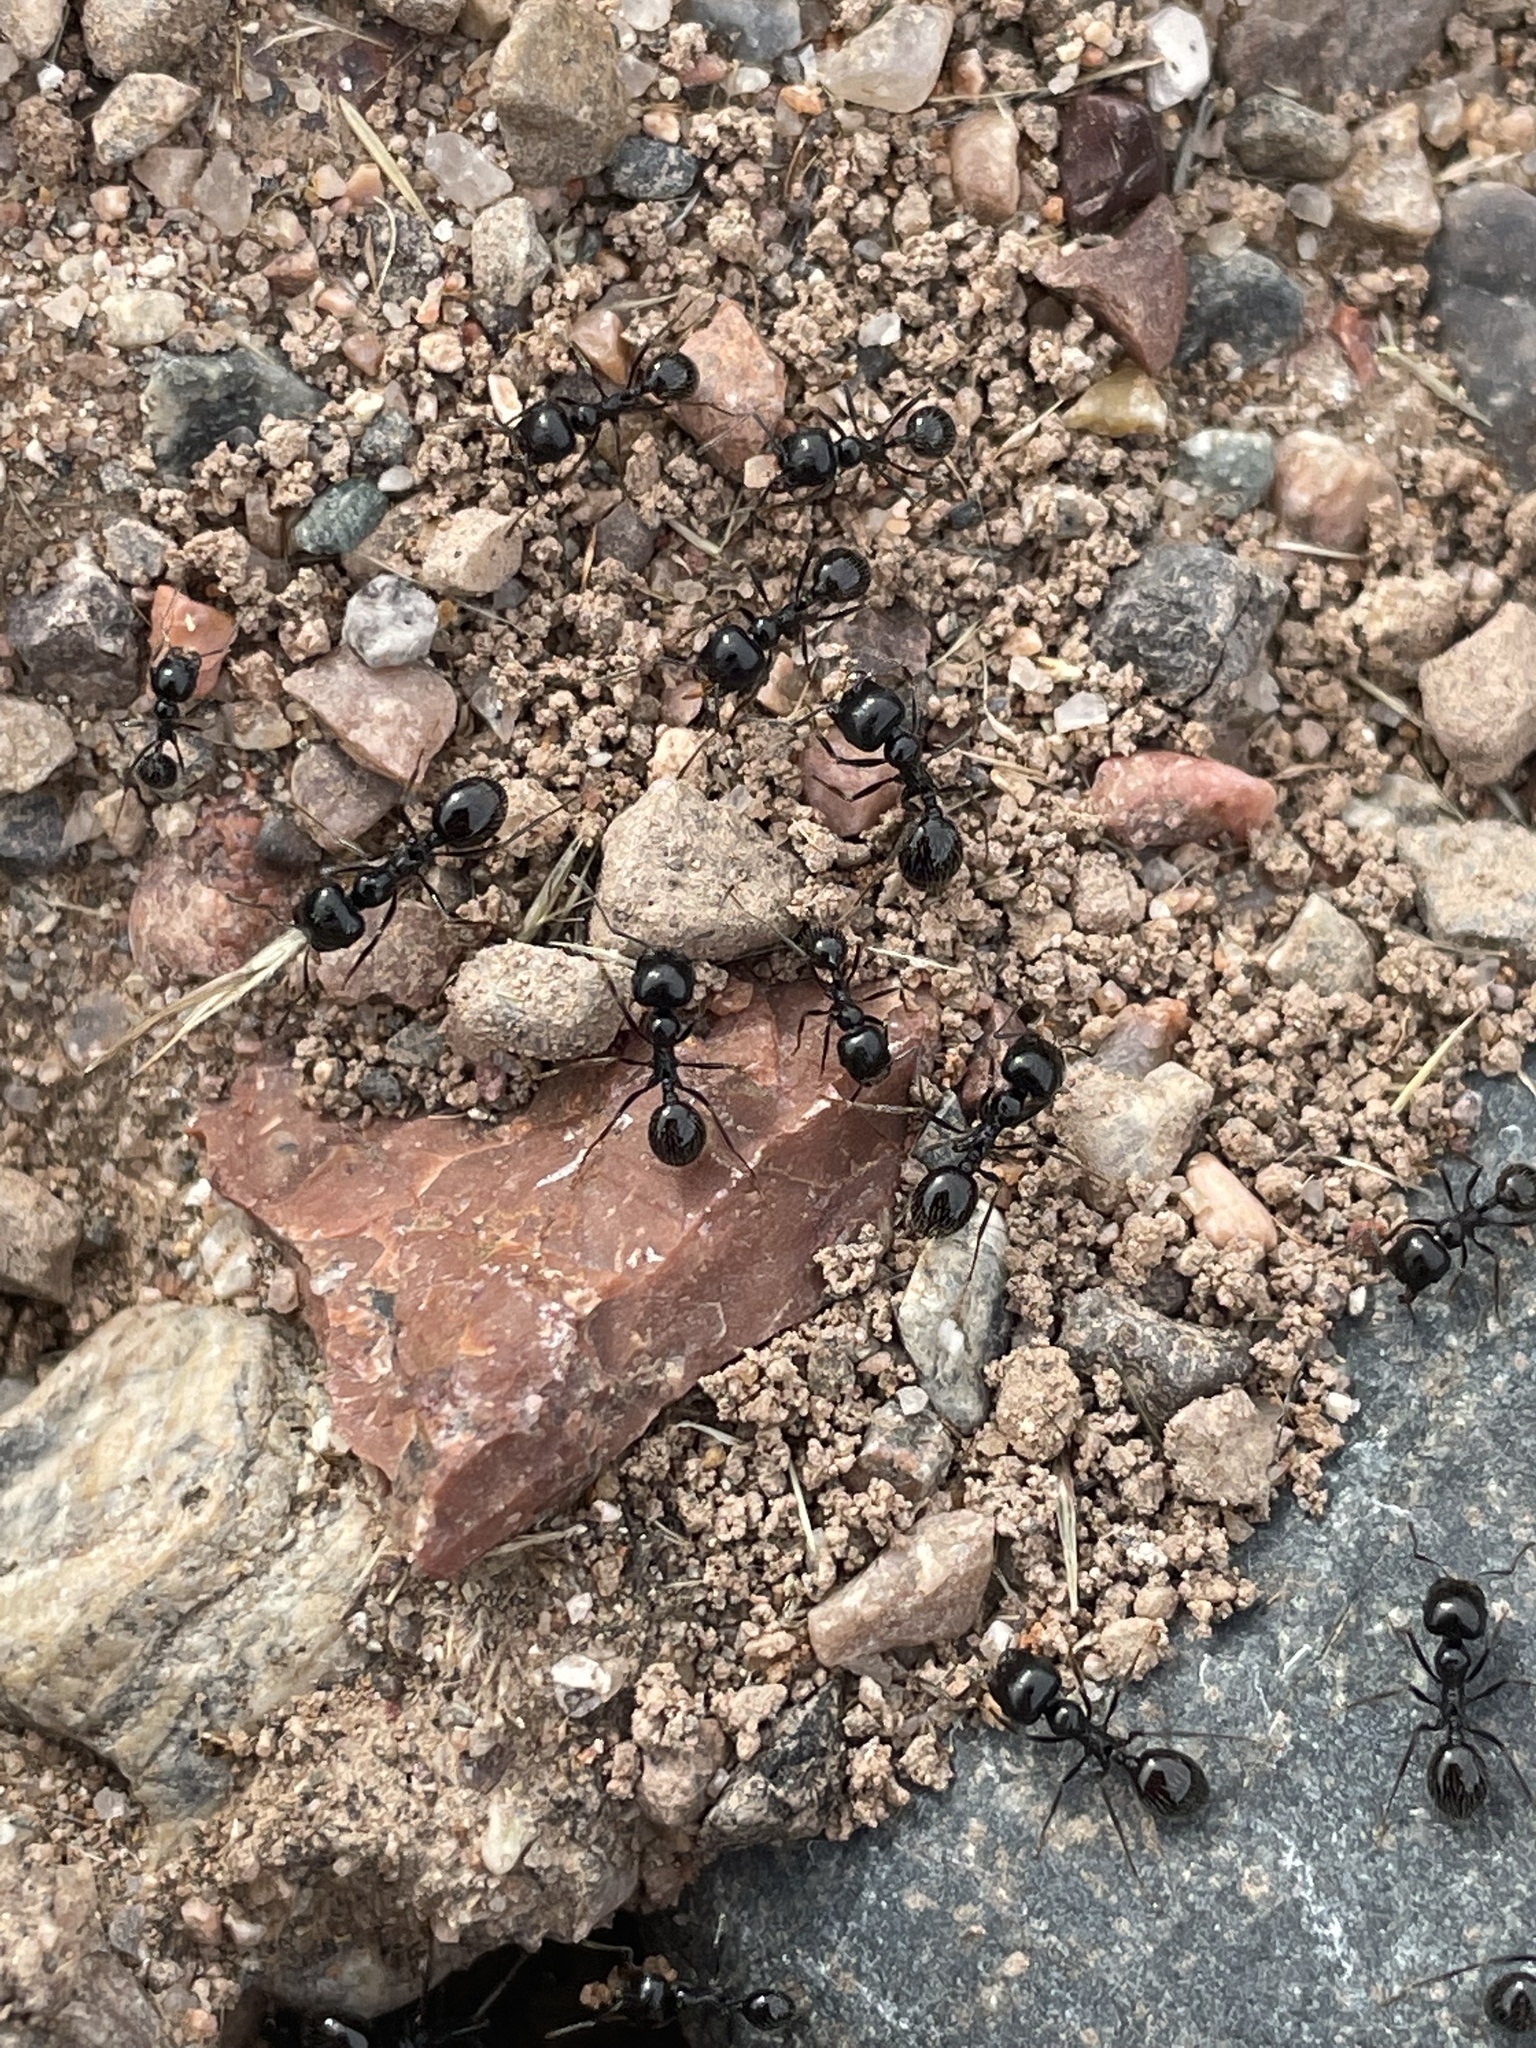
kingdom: Animalia
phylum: Arthropoda
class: Insecta
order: Hymenoptera
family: Formicidae
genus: Messor
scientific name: Messor pergandei
